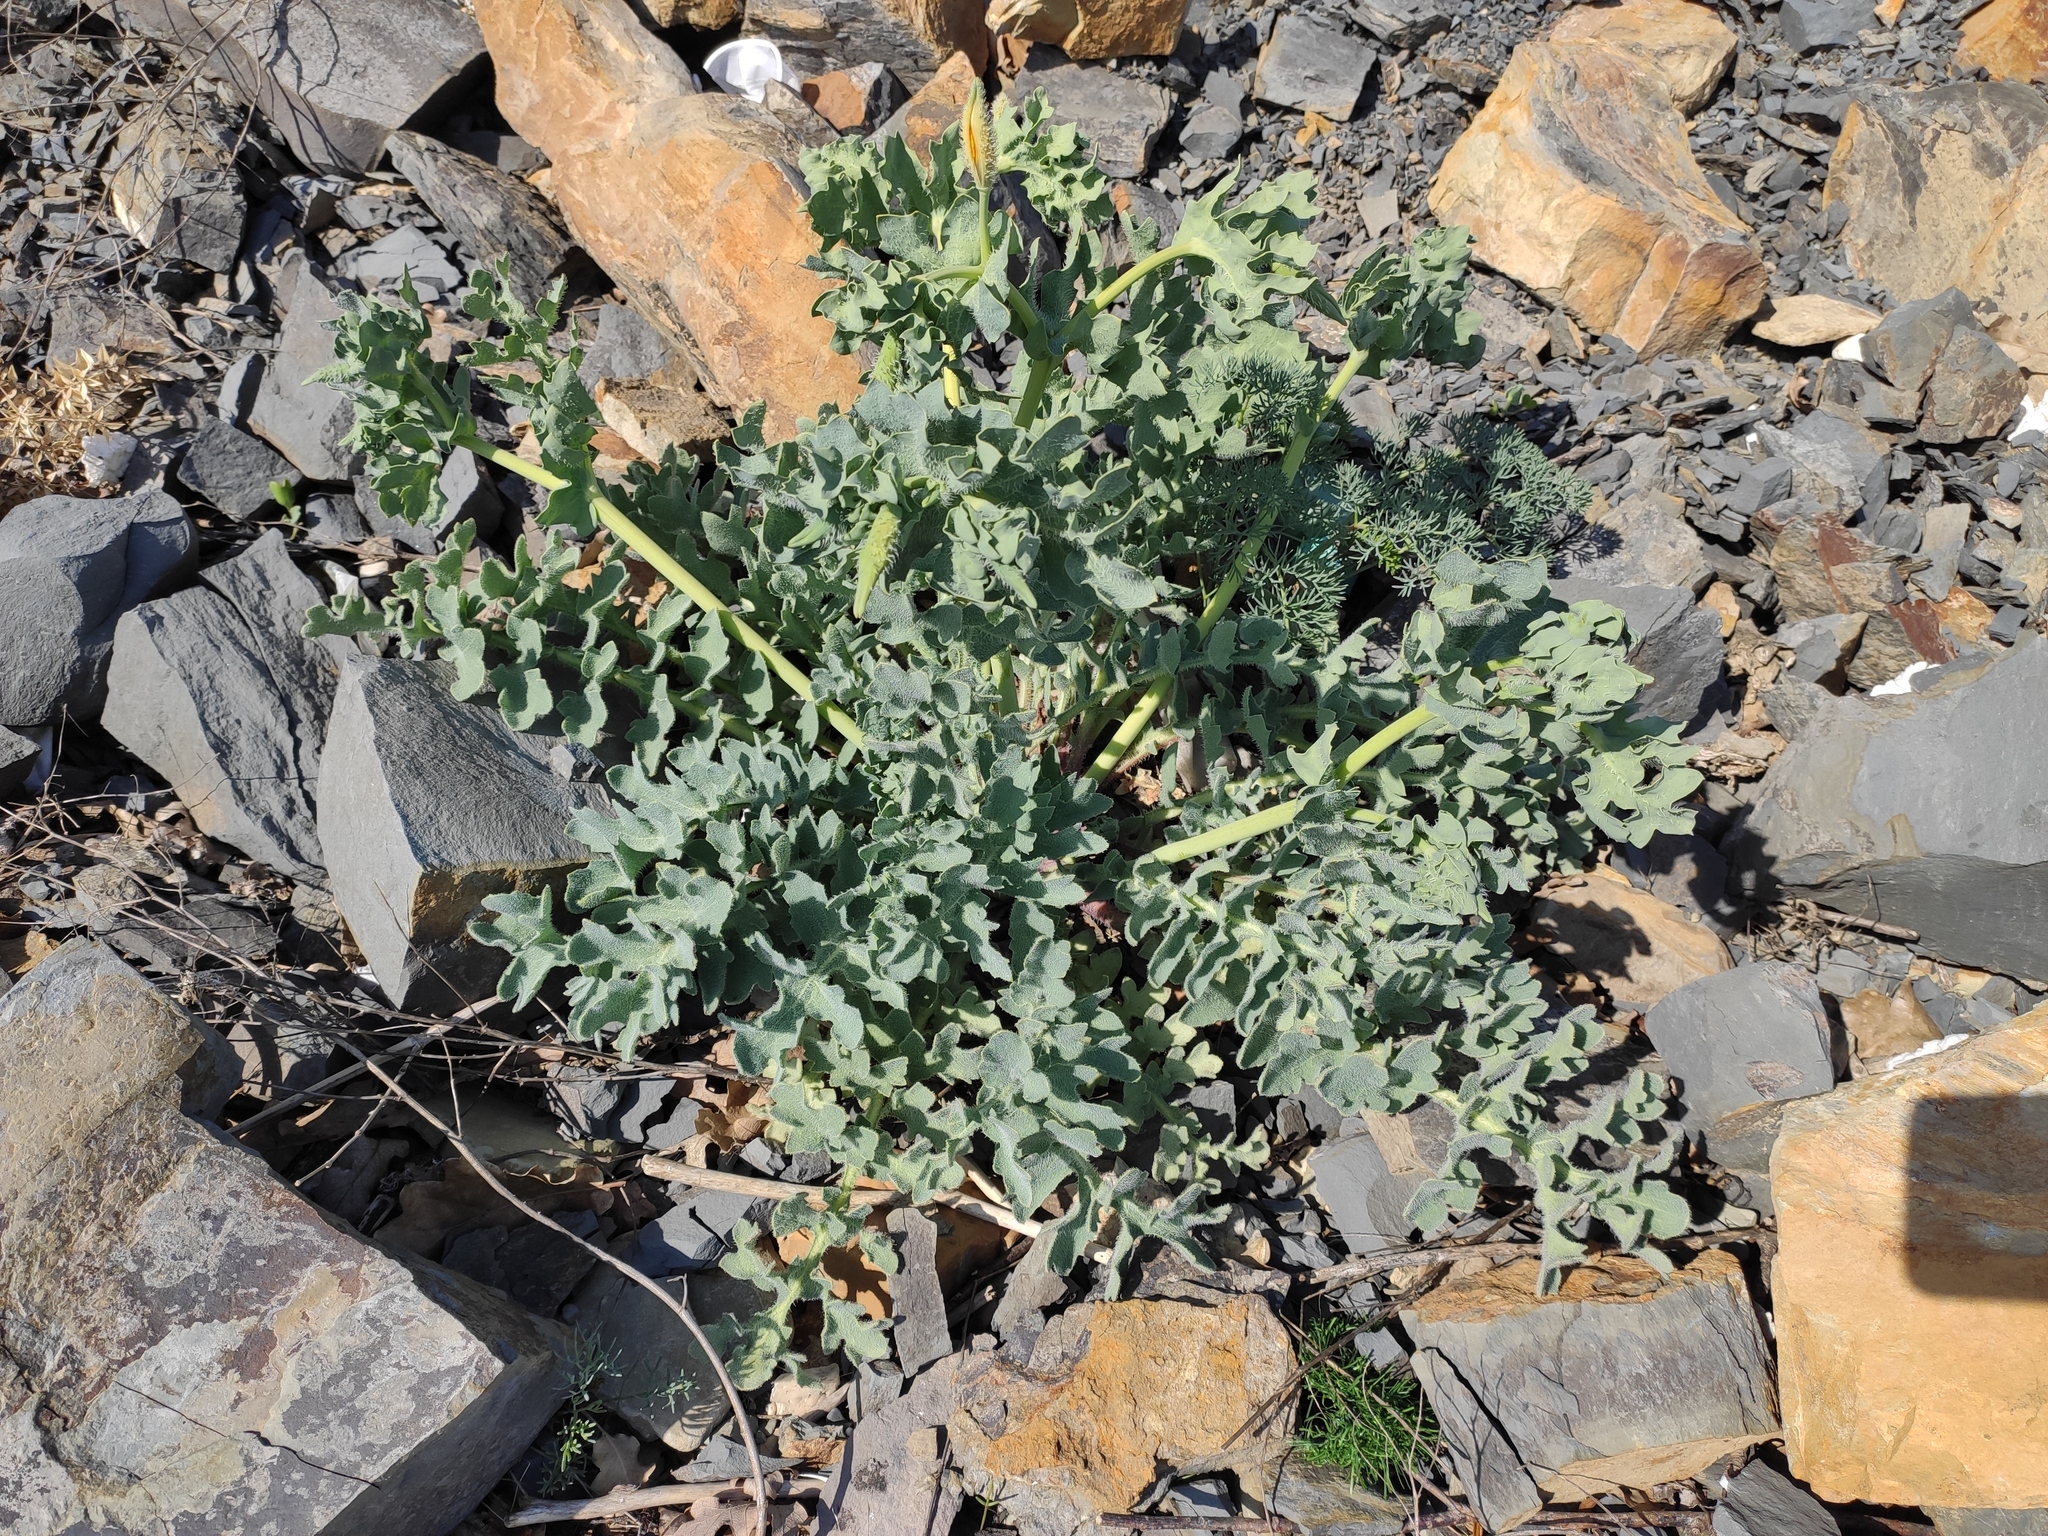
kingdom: Plantae
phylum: Tracheophyta
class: Magnoliopsida
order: Ranunculales
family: Papaveraceae
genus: Glaucium
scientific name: Glaucium flavum
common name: Yellow horned-poppy
